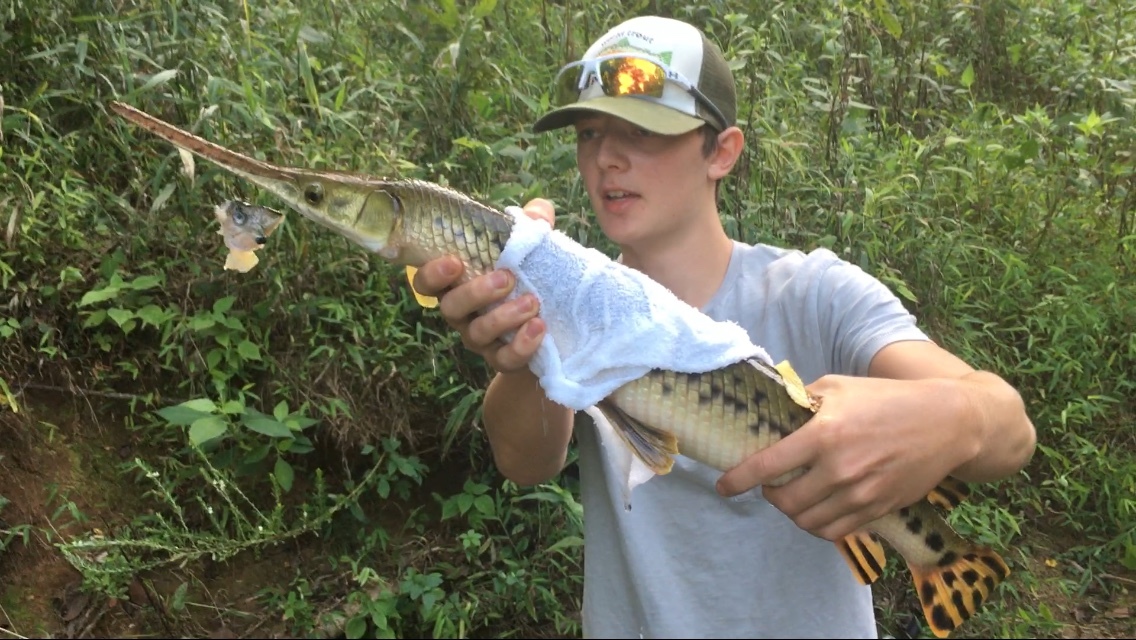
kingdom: Animalia
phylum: Chordata
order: Lepisosteiformes
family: Lepisosteidae
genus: Lepisosteus
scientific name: Lepisosteus osseus
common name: Longnose gar
